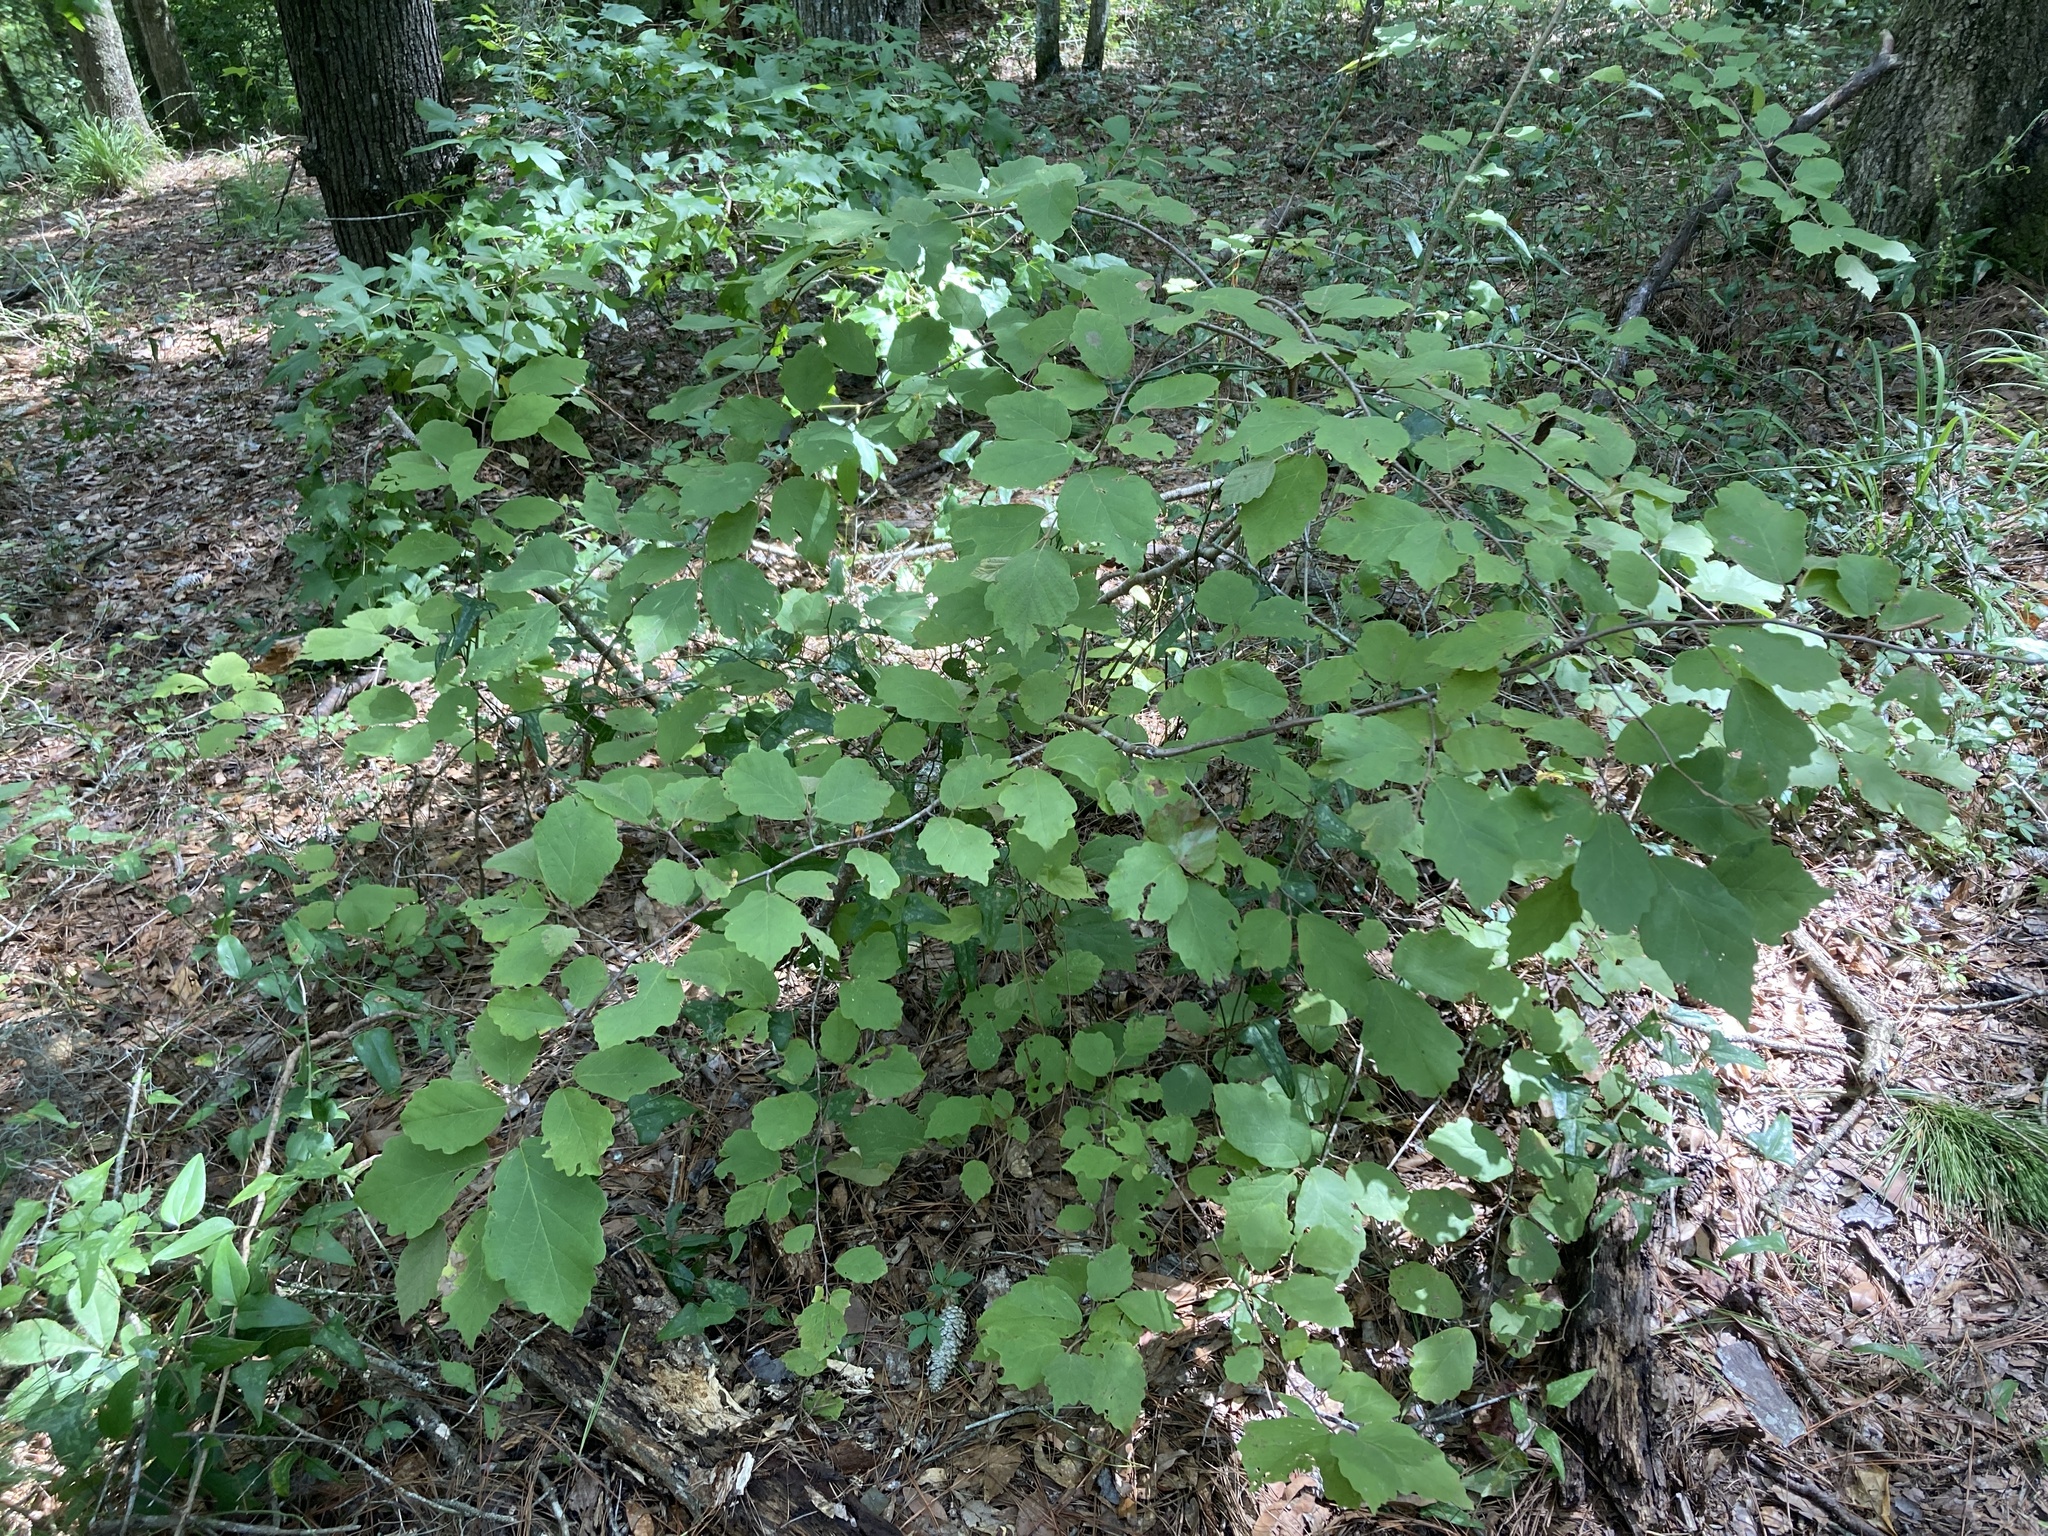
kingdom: Plantae
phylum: Tracheophyta
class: Magnoliopsida
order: Saxifragales
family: Hamamelidaceae
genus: Hamamelis
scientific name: Hamamelis virginiana
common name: Witch-hazel
